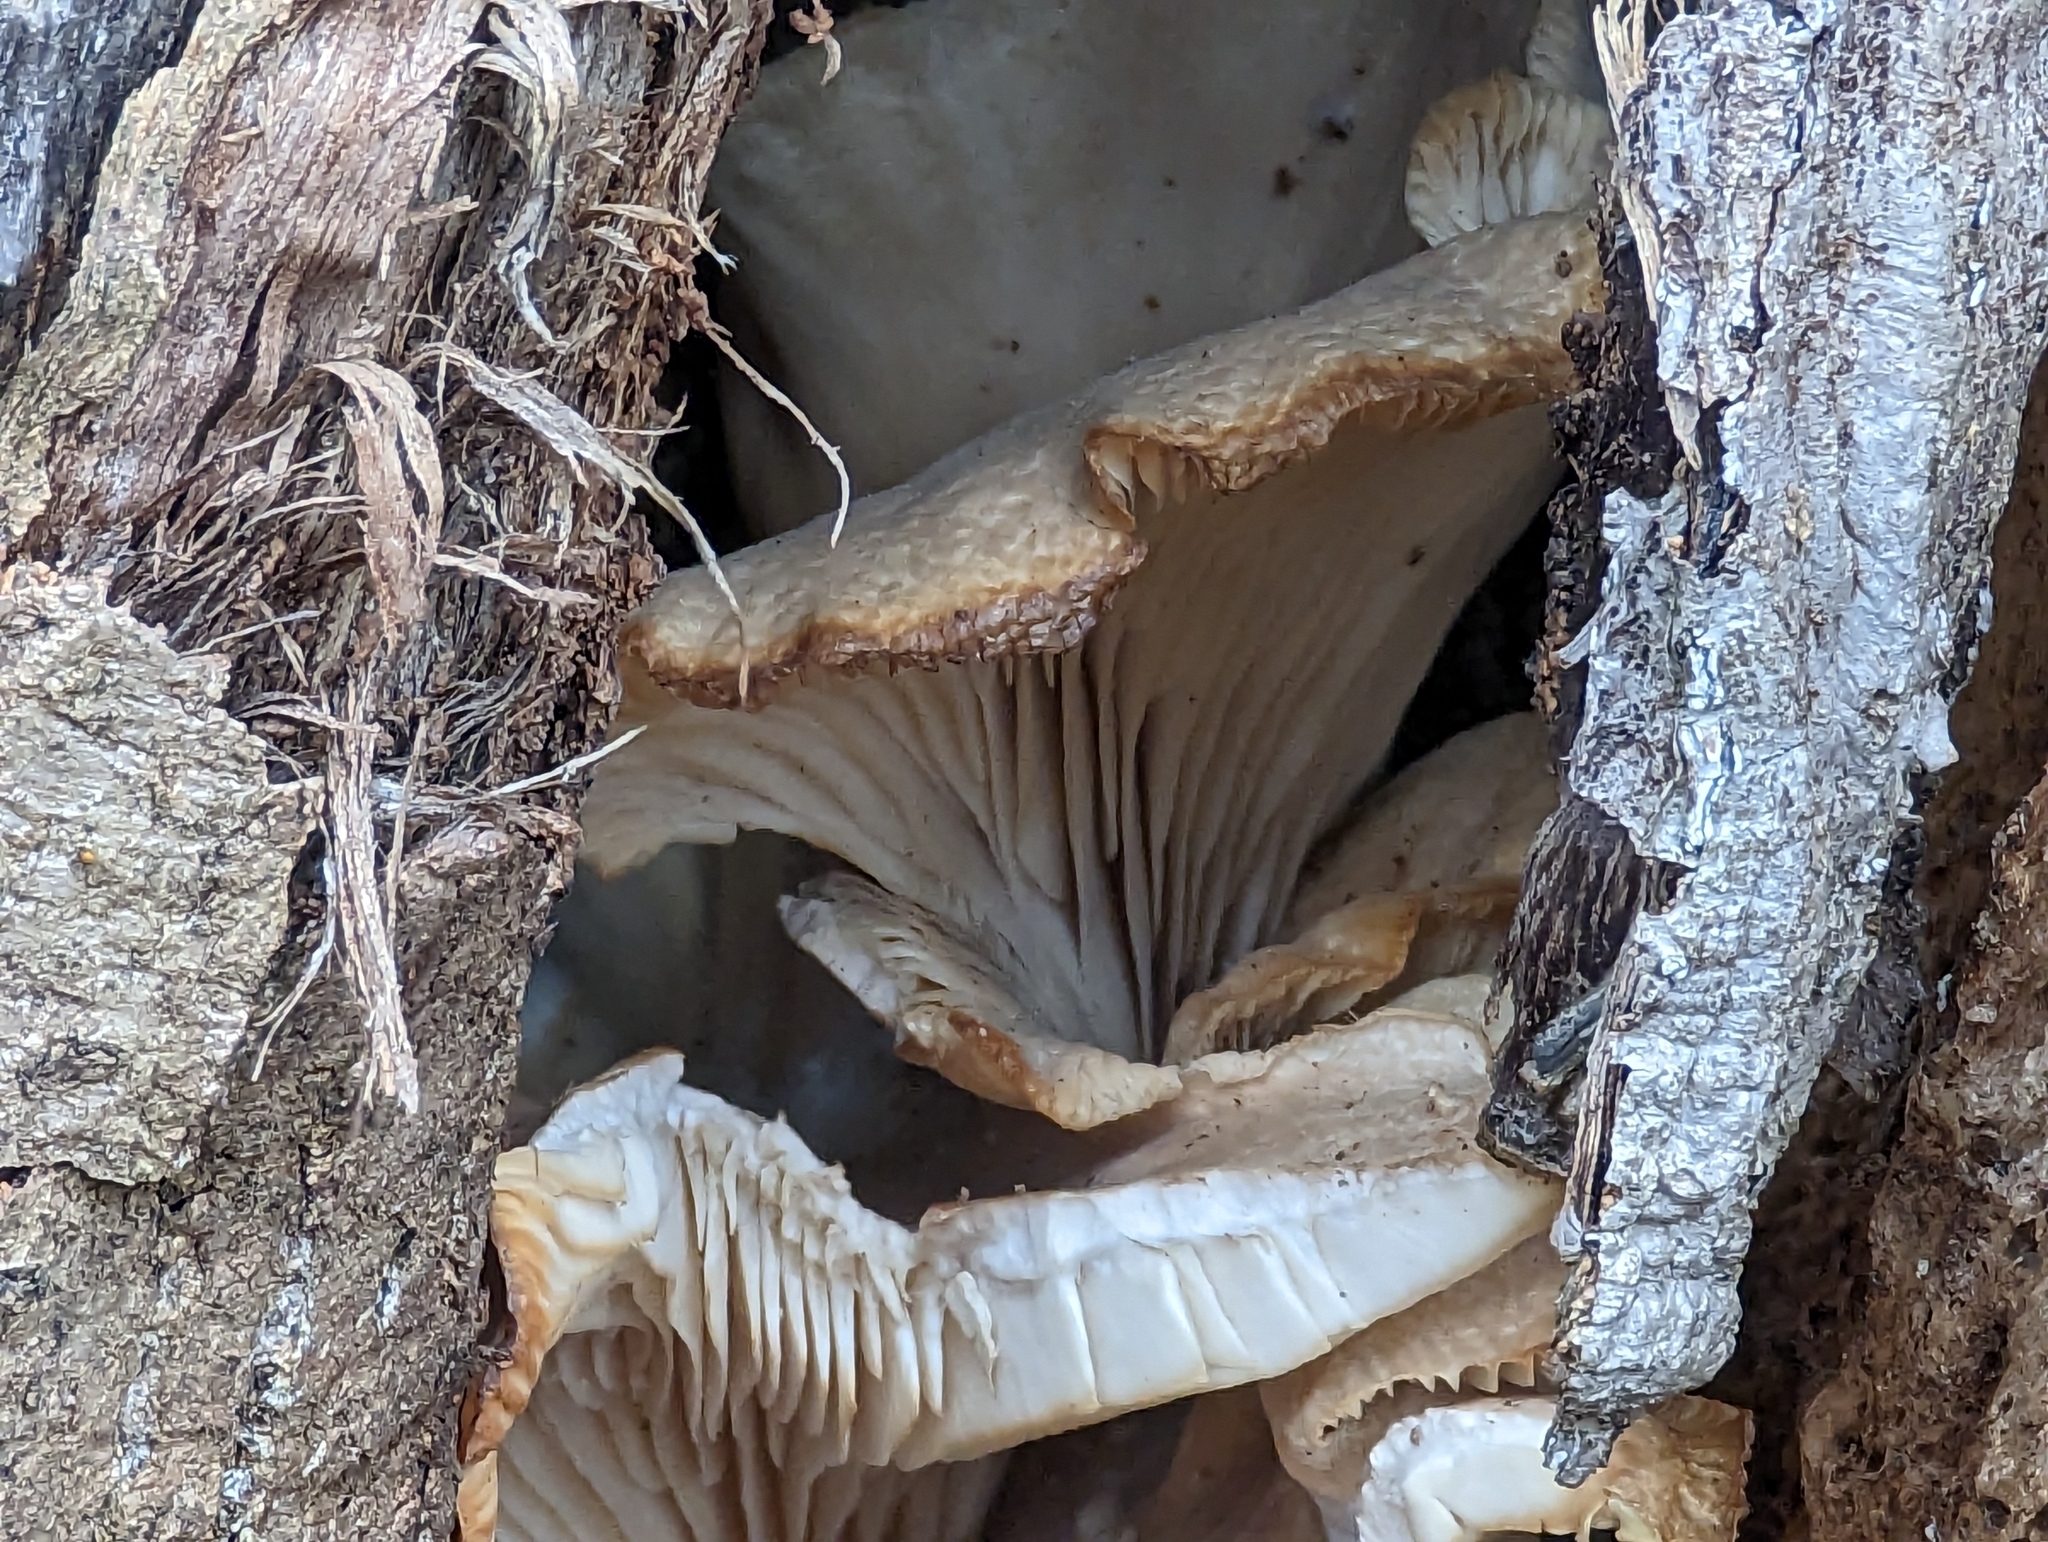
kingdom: Fungi
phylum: Basidiomycota
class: Agaricomycetes
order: Agaricales
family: Pleurotaceae
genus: Pleurotus
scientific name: Pleurotus ostreatus
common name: Oyster mushroom
